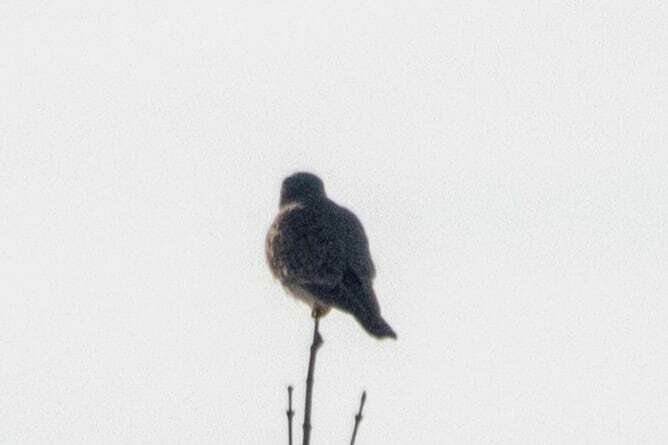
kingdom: Animalia
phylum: Chordata
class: Aves
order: Falconiformes
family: Falconidae
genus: Falco
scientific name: Falco tinnunculus
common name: Common kestrel
